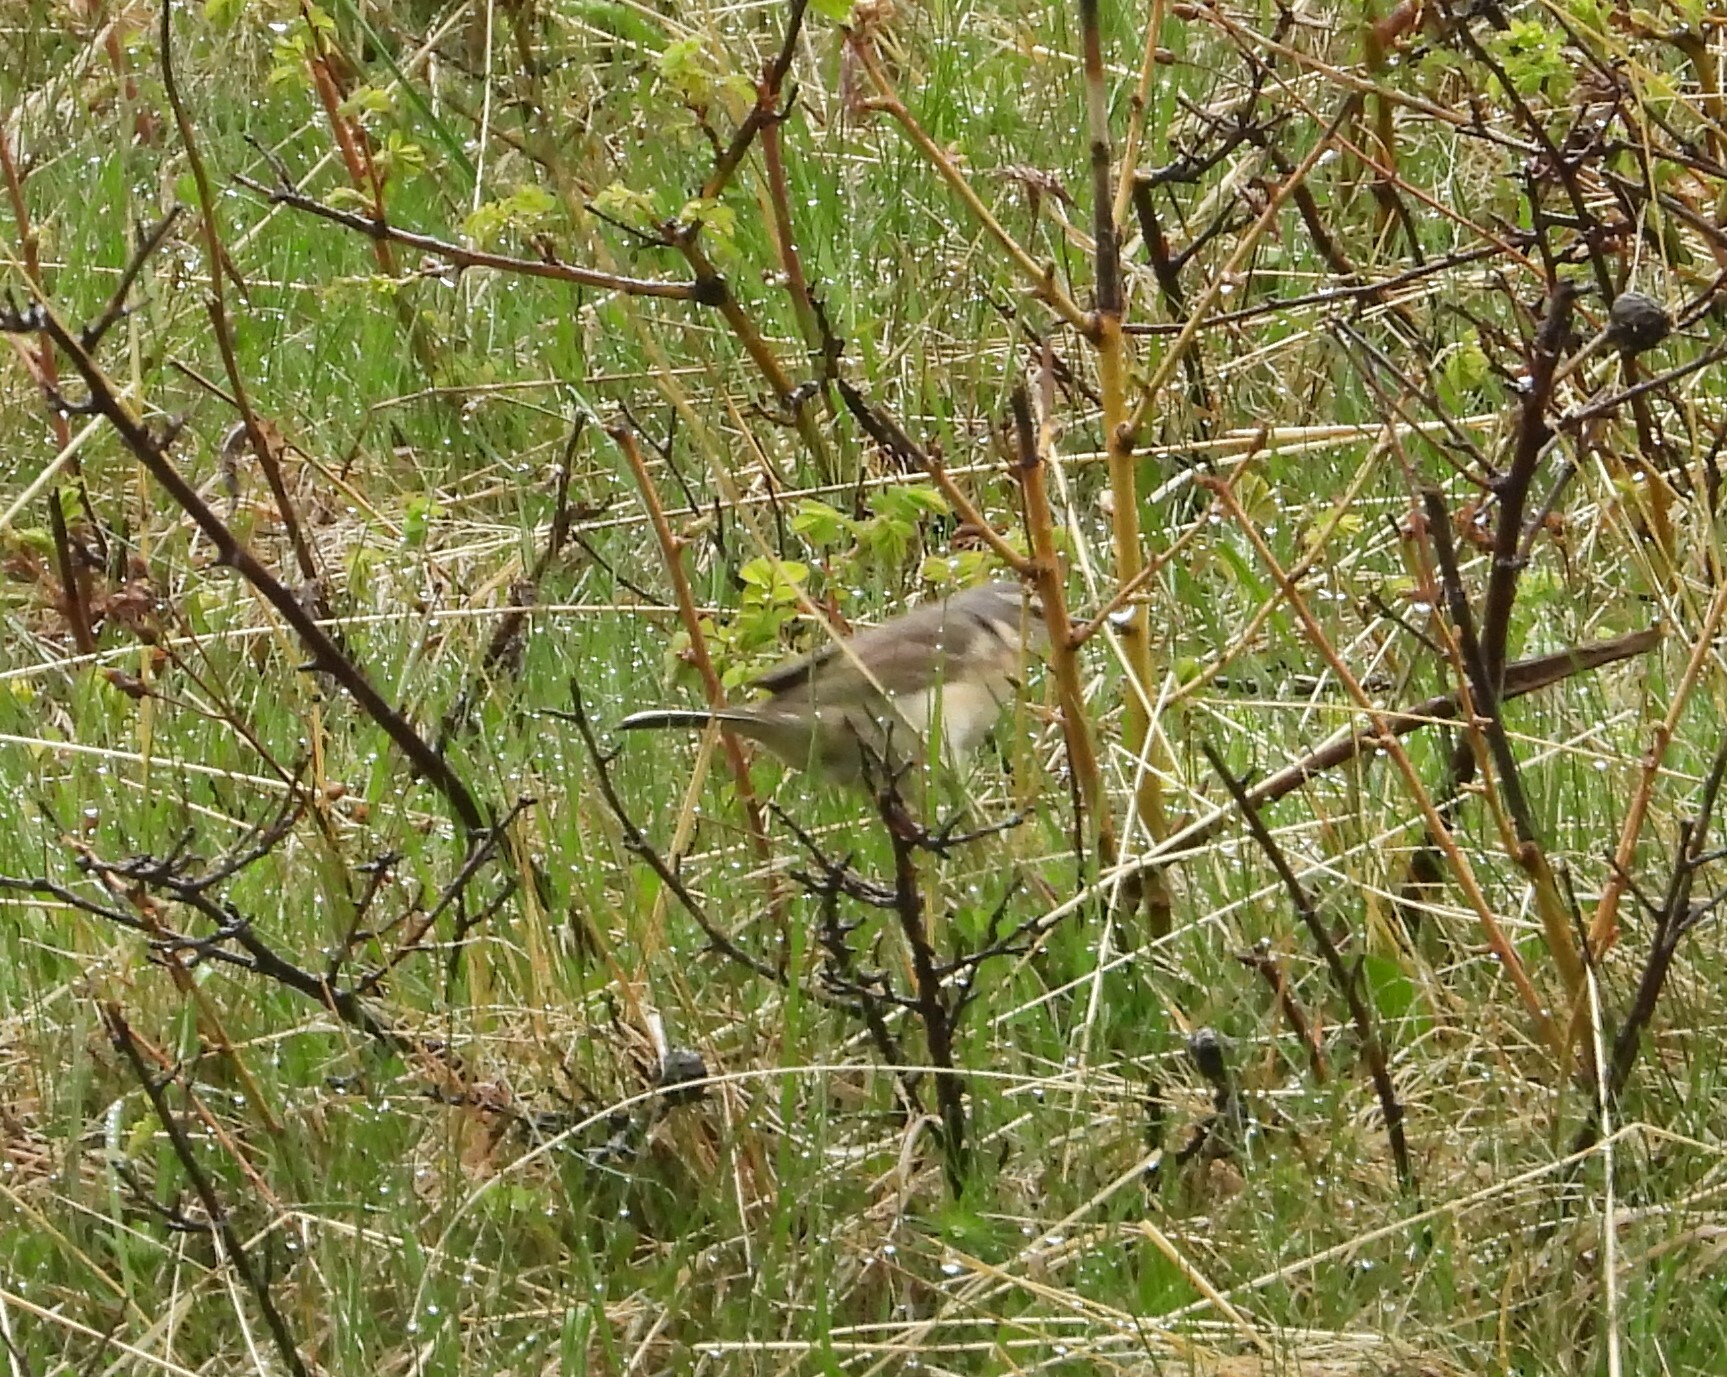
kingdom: Animalia
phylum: Chordata
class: Aves
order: Passeriformes
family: Motacillidae
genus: Anthus
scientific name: Anthus spinoletta
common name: Water pipit
